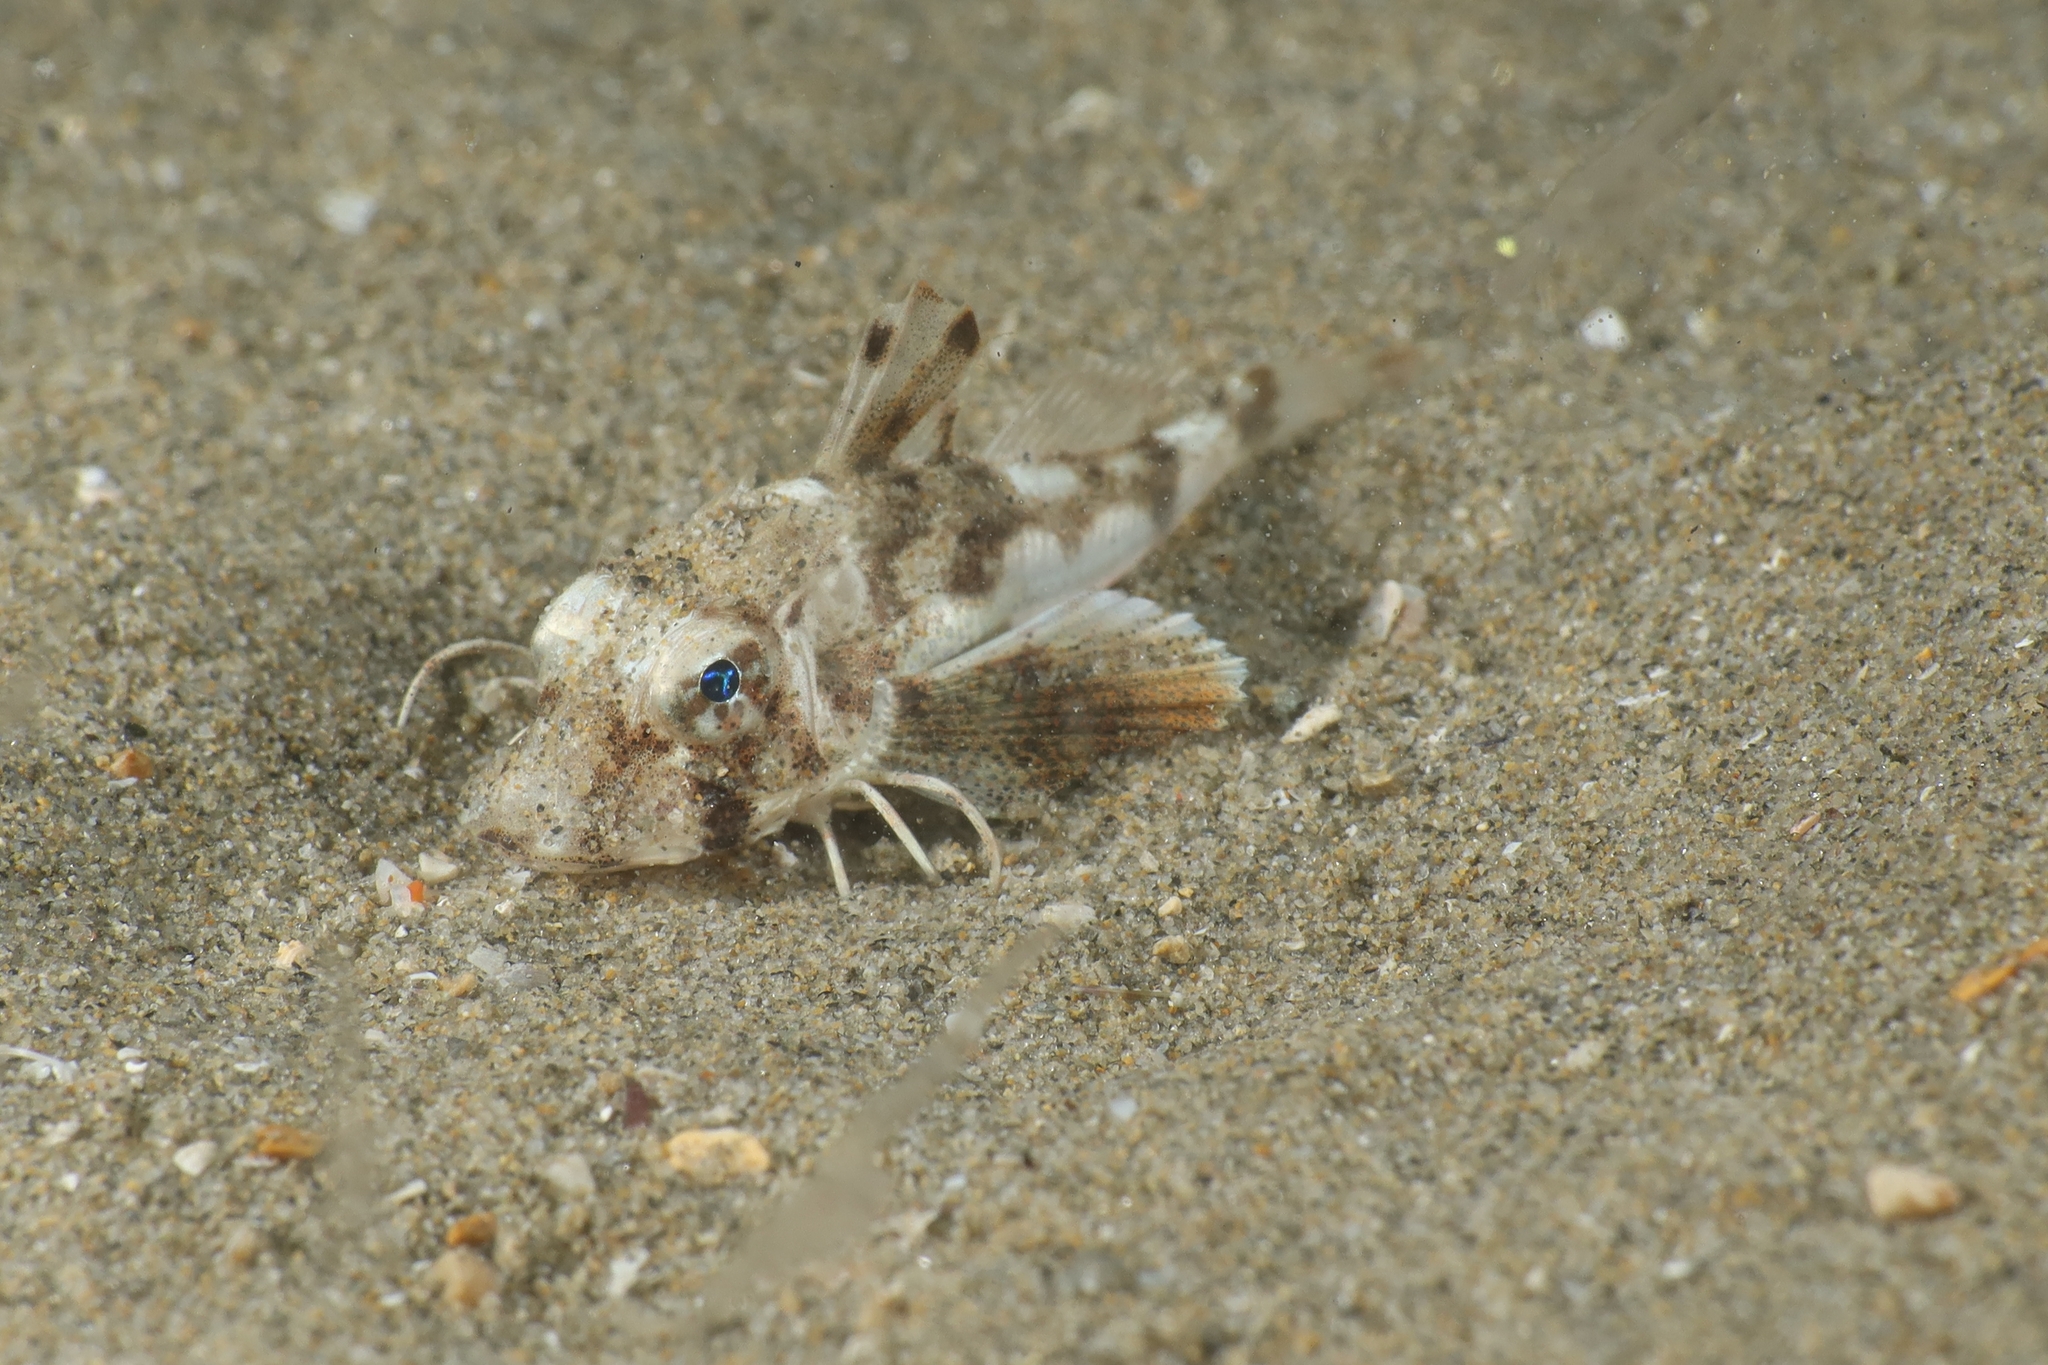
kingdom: Animalia
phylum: Chordata
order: Scorpaeniformes
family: Triglidae
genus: Chelidonichthys
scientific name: Chelidonichthys lucerna
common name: Tub gurnard
